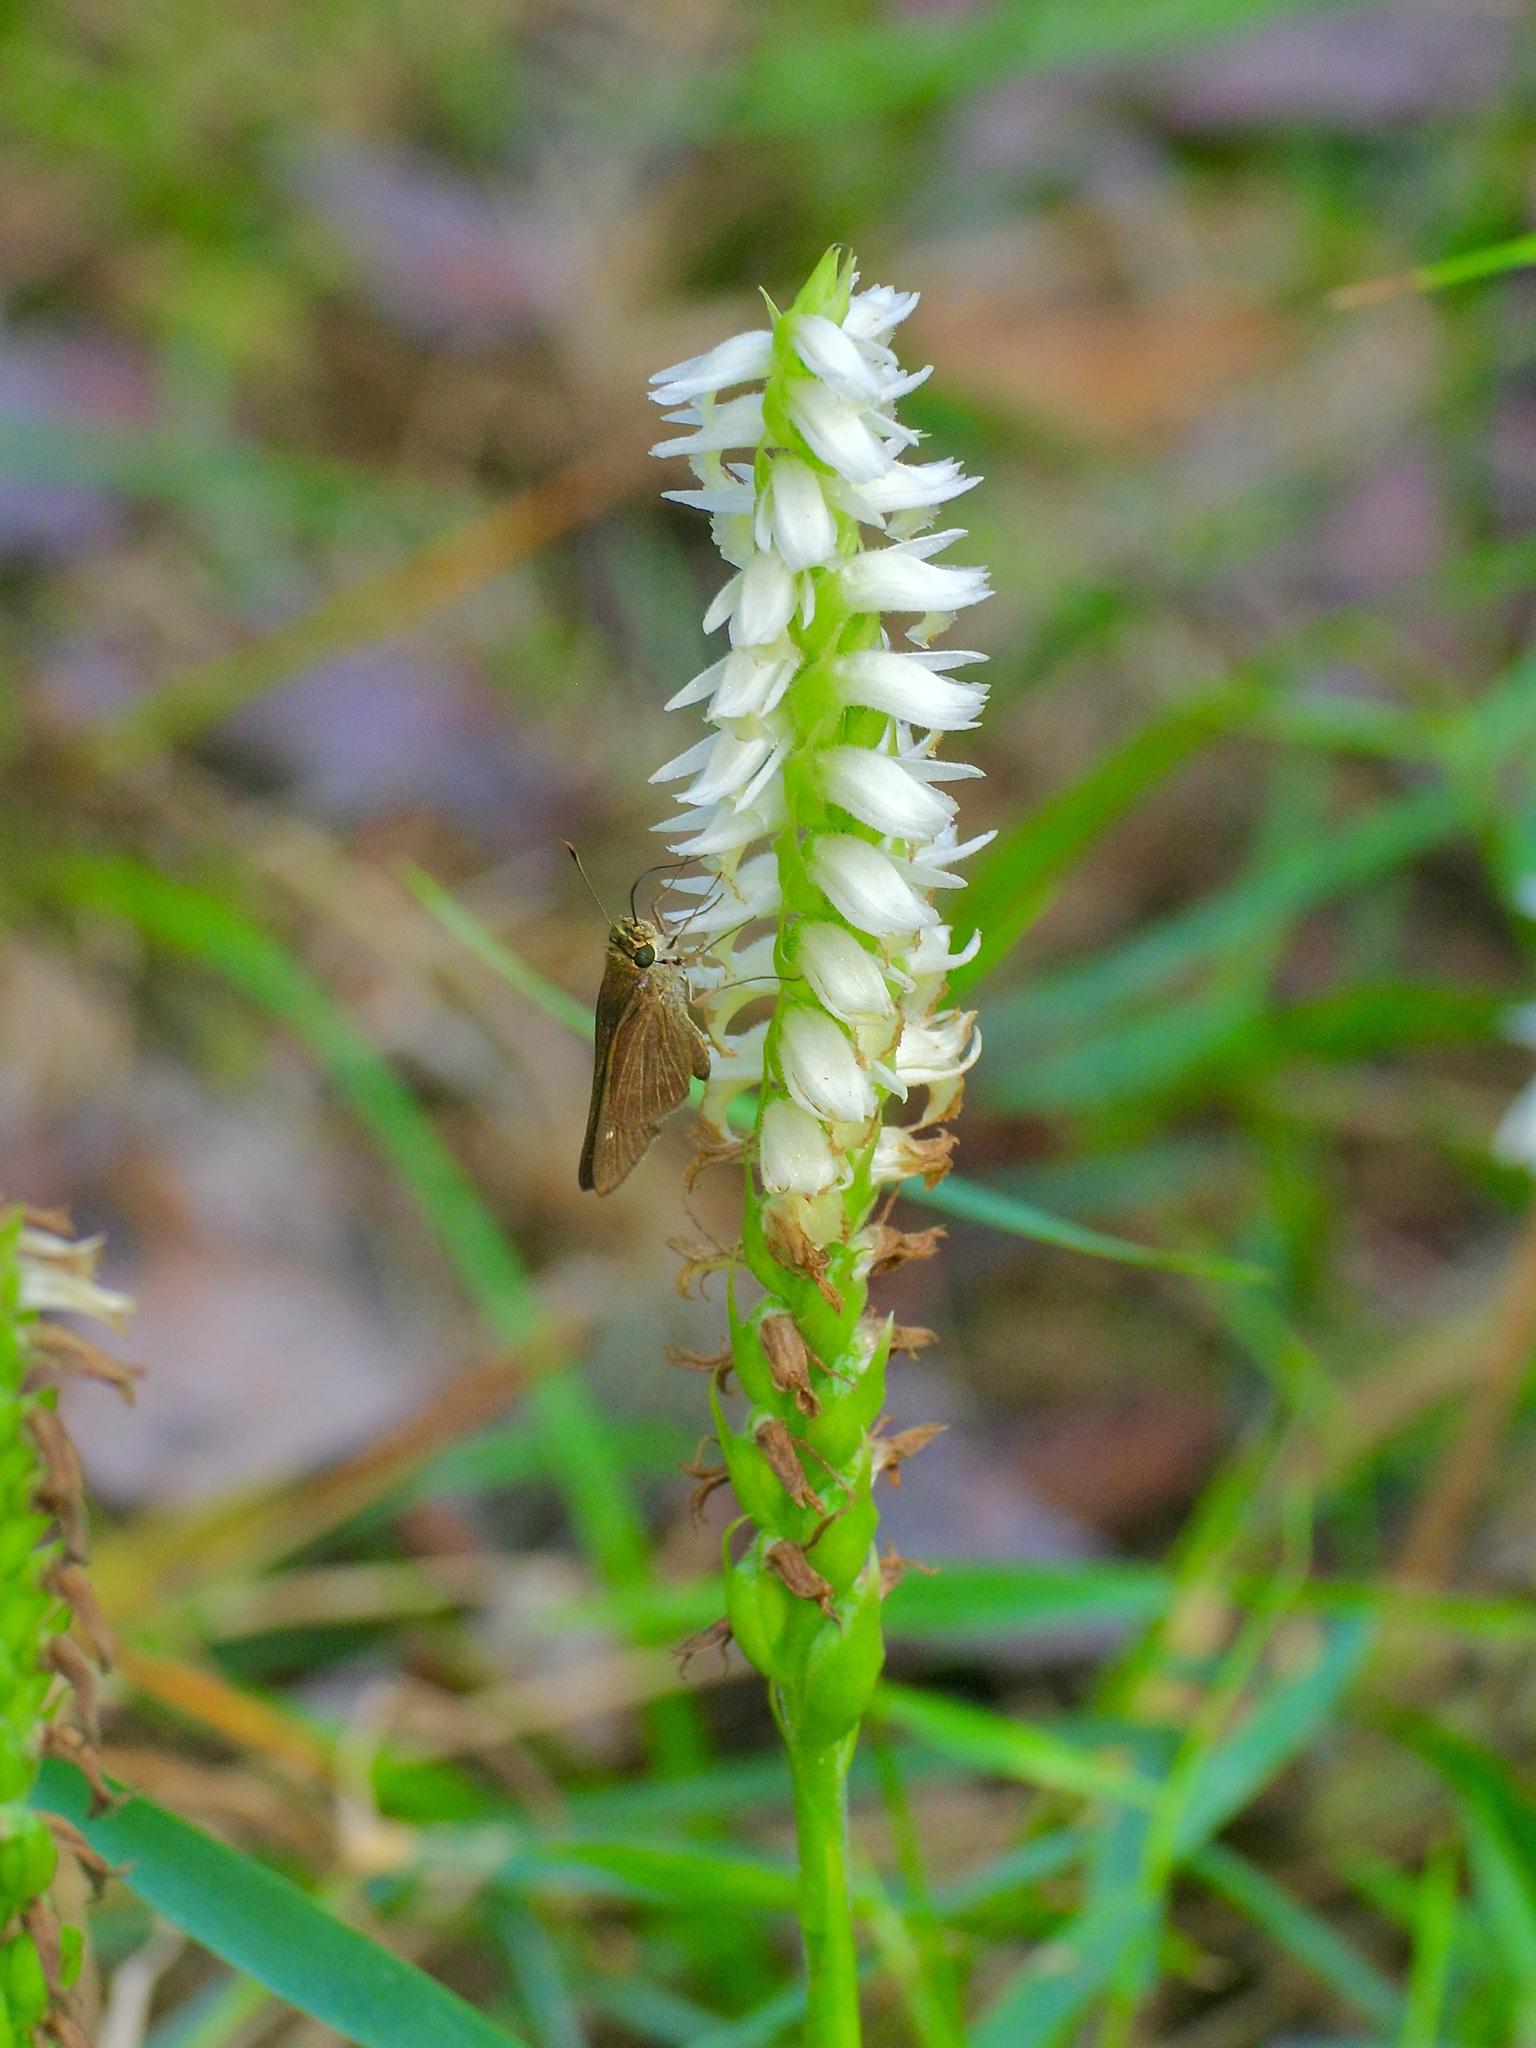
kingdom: Animalia
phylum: Arthropoda
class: Insecta
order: Lepidoptera
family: Hesperiidae
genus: Panoquina
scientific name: Panoquina ocola
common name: Ocola skipper
